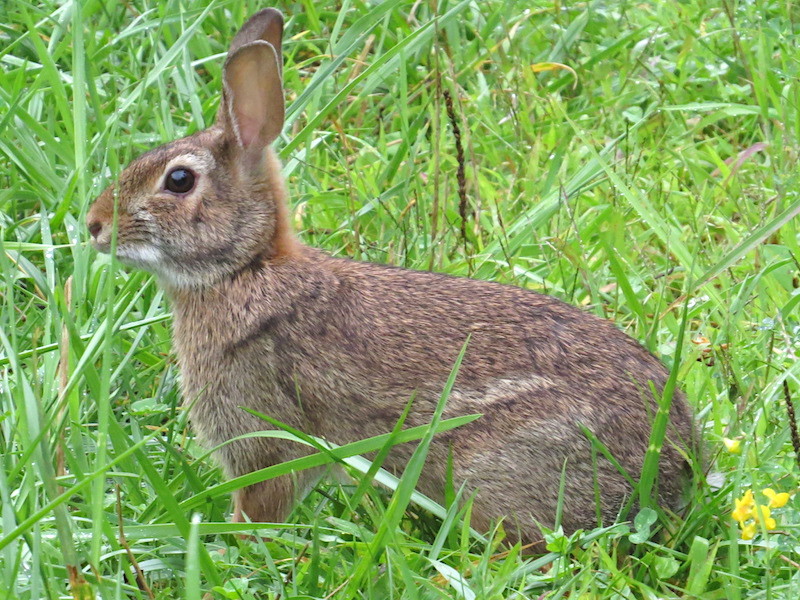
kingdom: Animalia
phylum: Chordata
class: Mammalia
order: Lagomorpha
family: Leporidae
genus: Sylvilagus
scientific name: Sylvilagus floridanus
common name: Eastern cottontail
